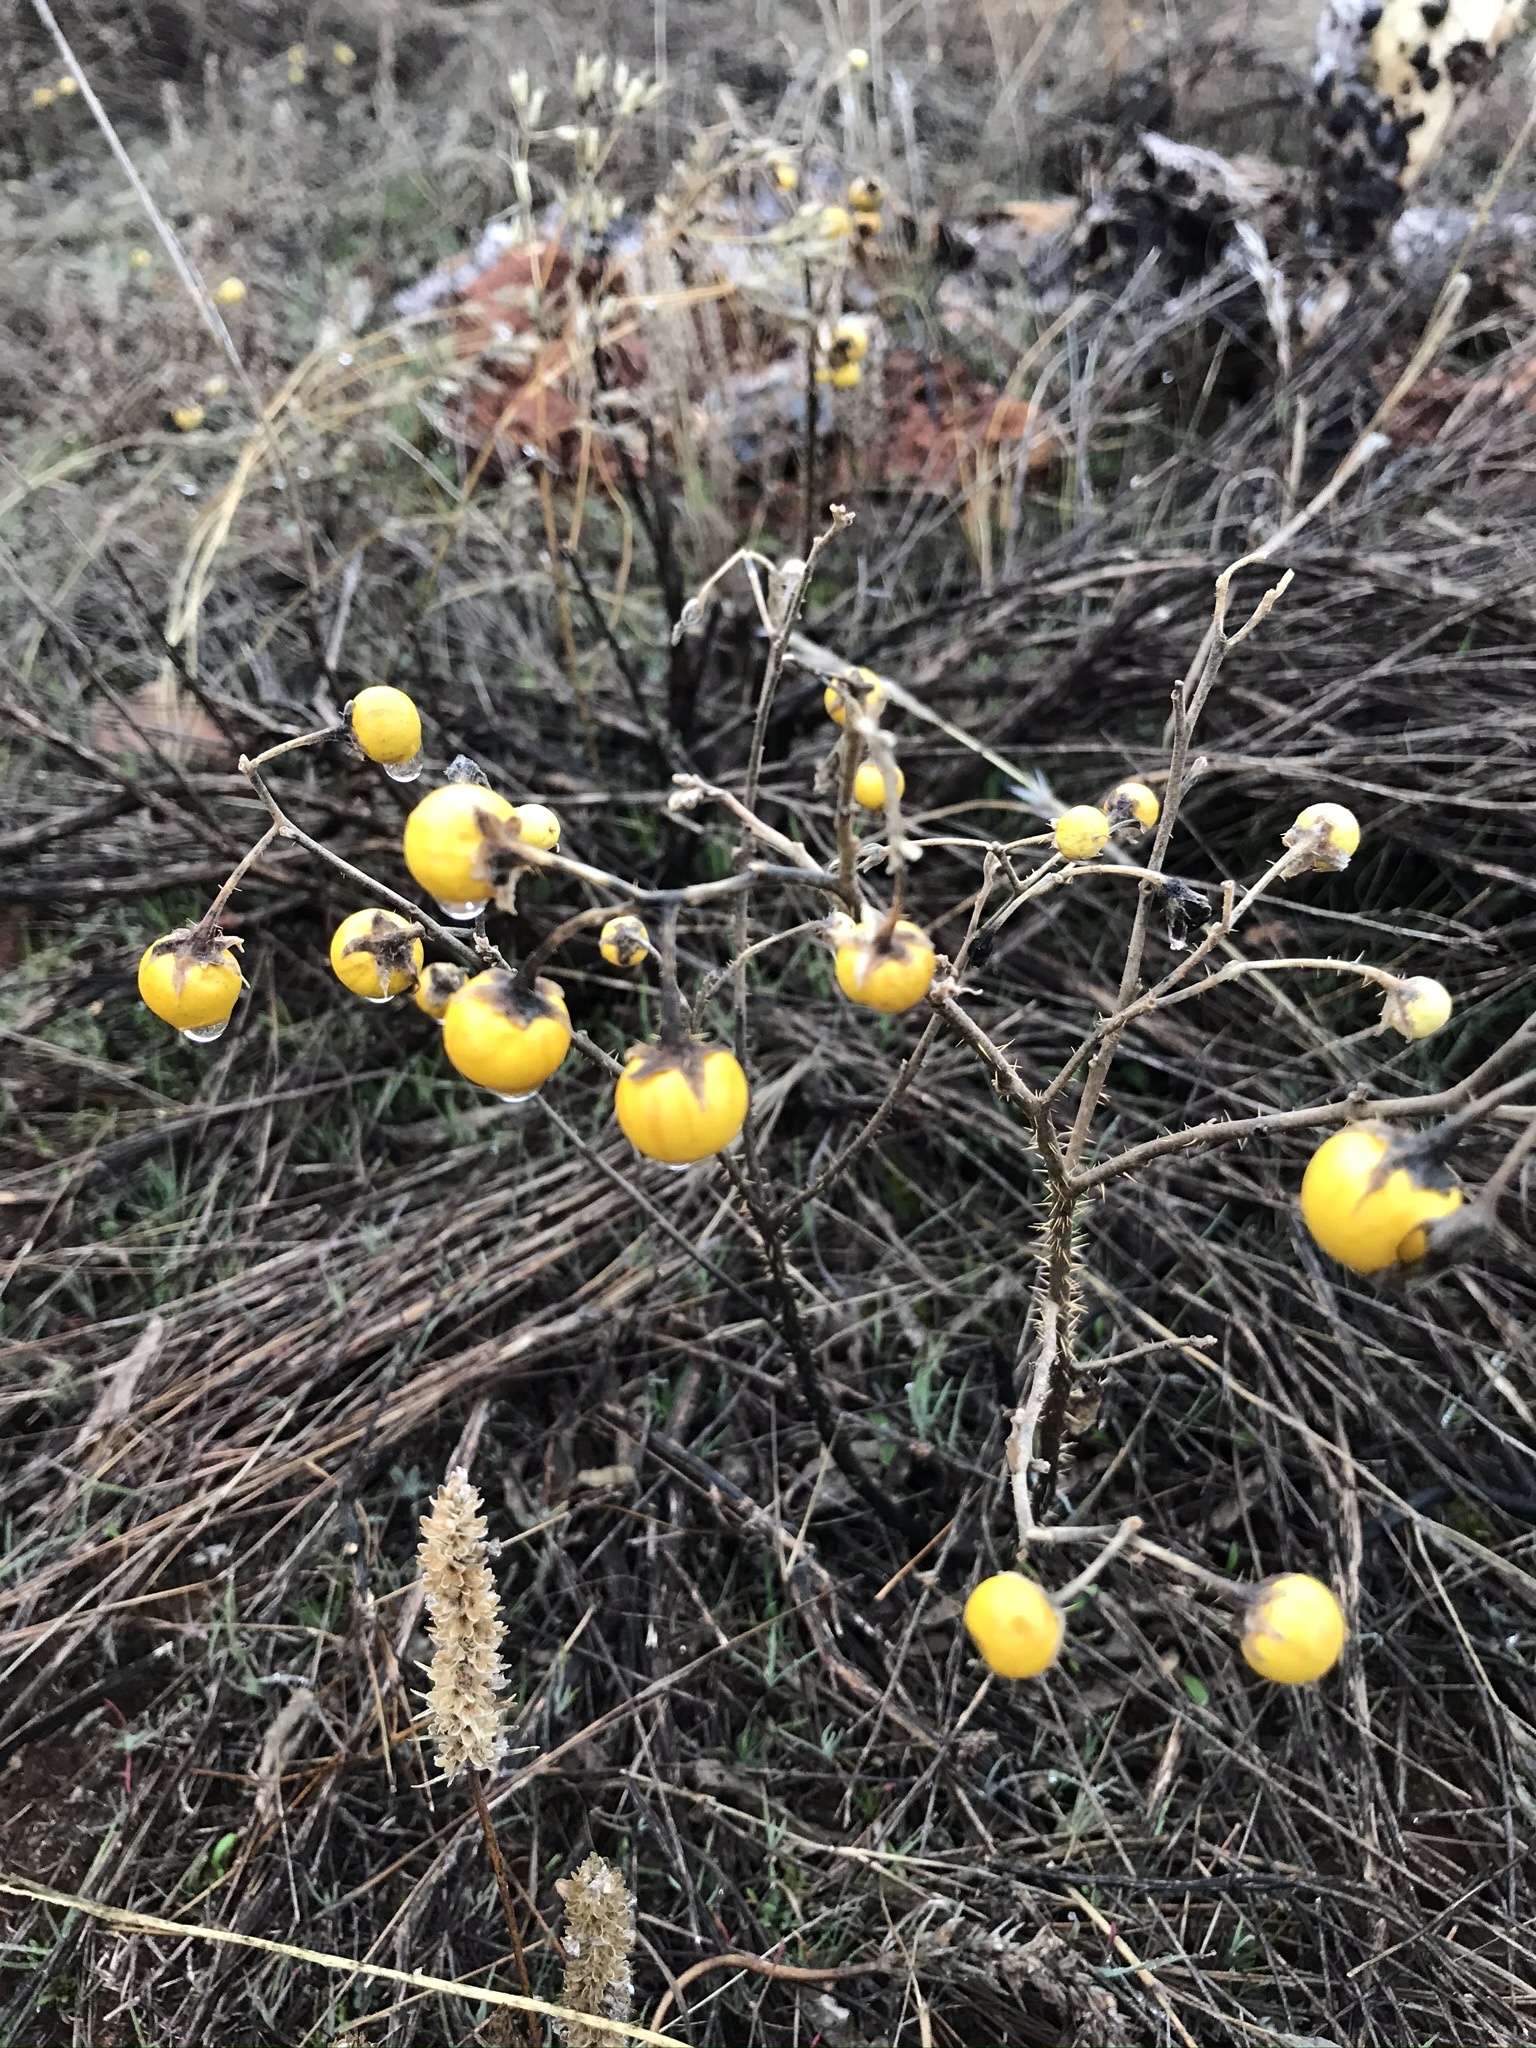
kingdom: Plantae
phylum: Tracheophyta
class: Magnoliopsida
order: Solanales
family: Solanaceae
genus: Solanum
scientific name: Solanum elaeagnifolium
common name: Silverleaf nightshade
